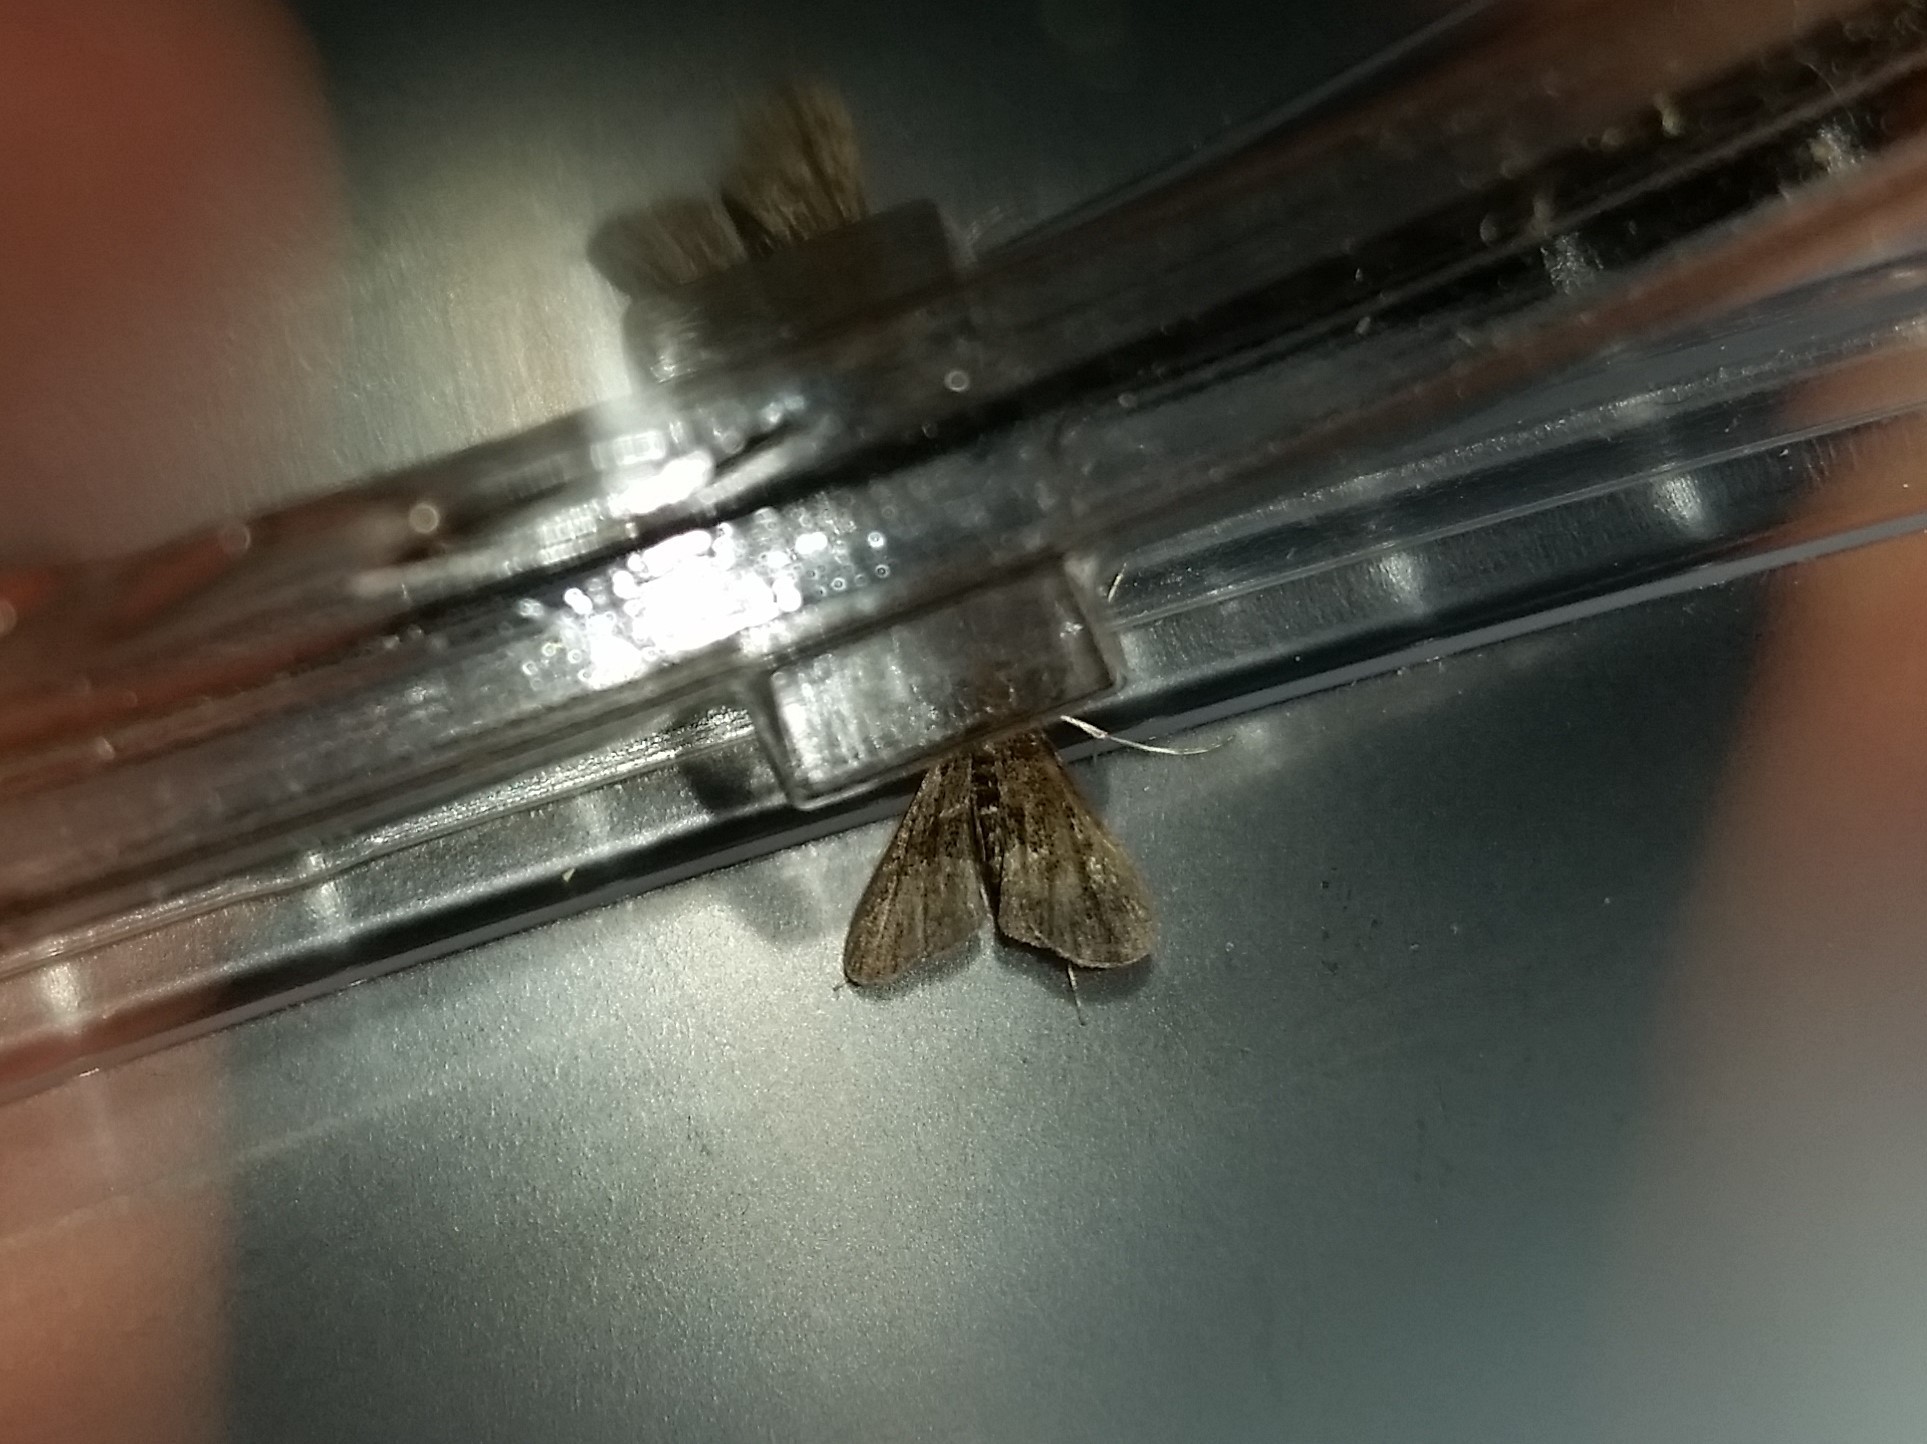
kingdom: Animalia
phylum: Arthropoda
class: Insecta
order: Lepidoptera
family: Crambidae
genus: Elophila
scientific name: Elophila tinealis
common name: Black duckweed moth
